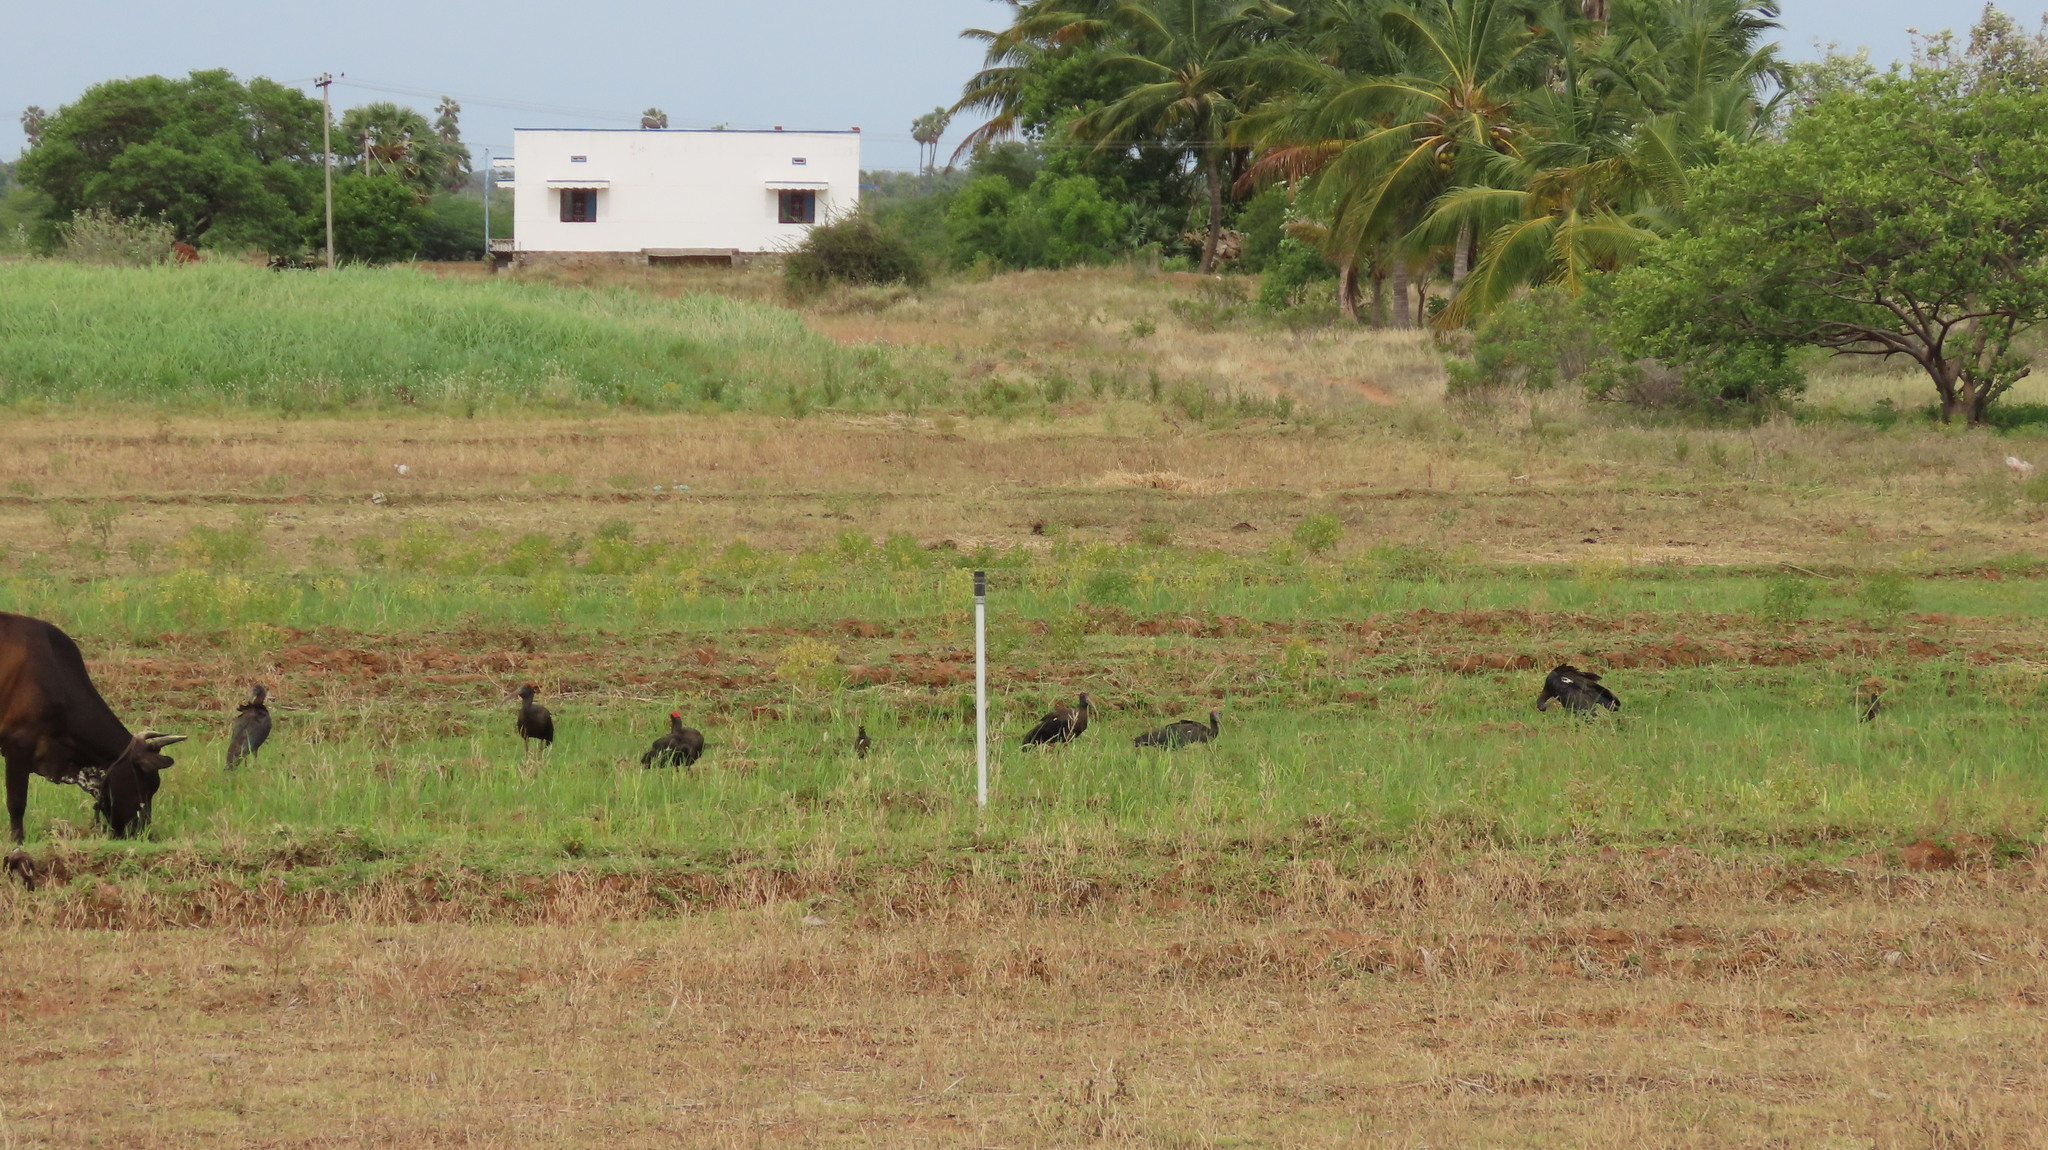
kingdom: Animalia
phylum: Chordata
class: Aves
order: Pelecaniformes
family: Threskiornithidae
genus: Pseudibis
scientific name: Pseudibis papillosa
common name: Red-naped ibis
